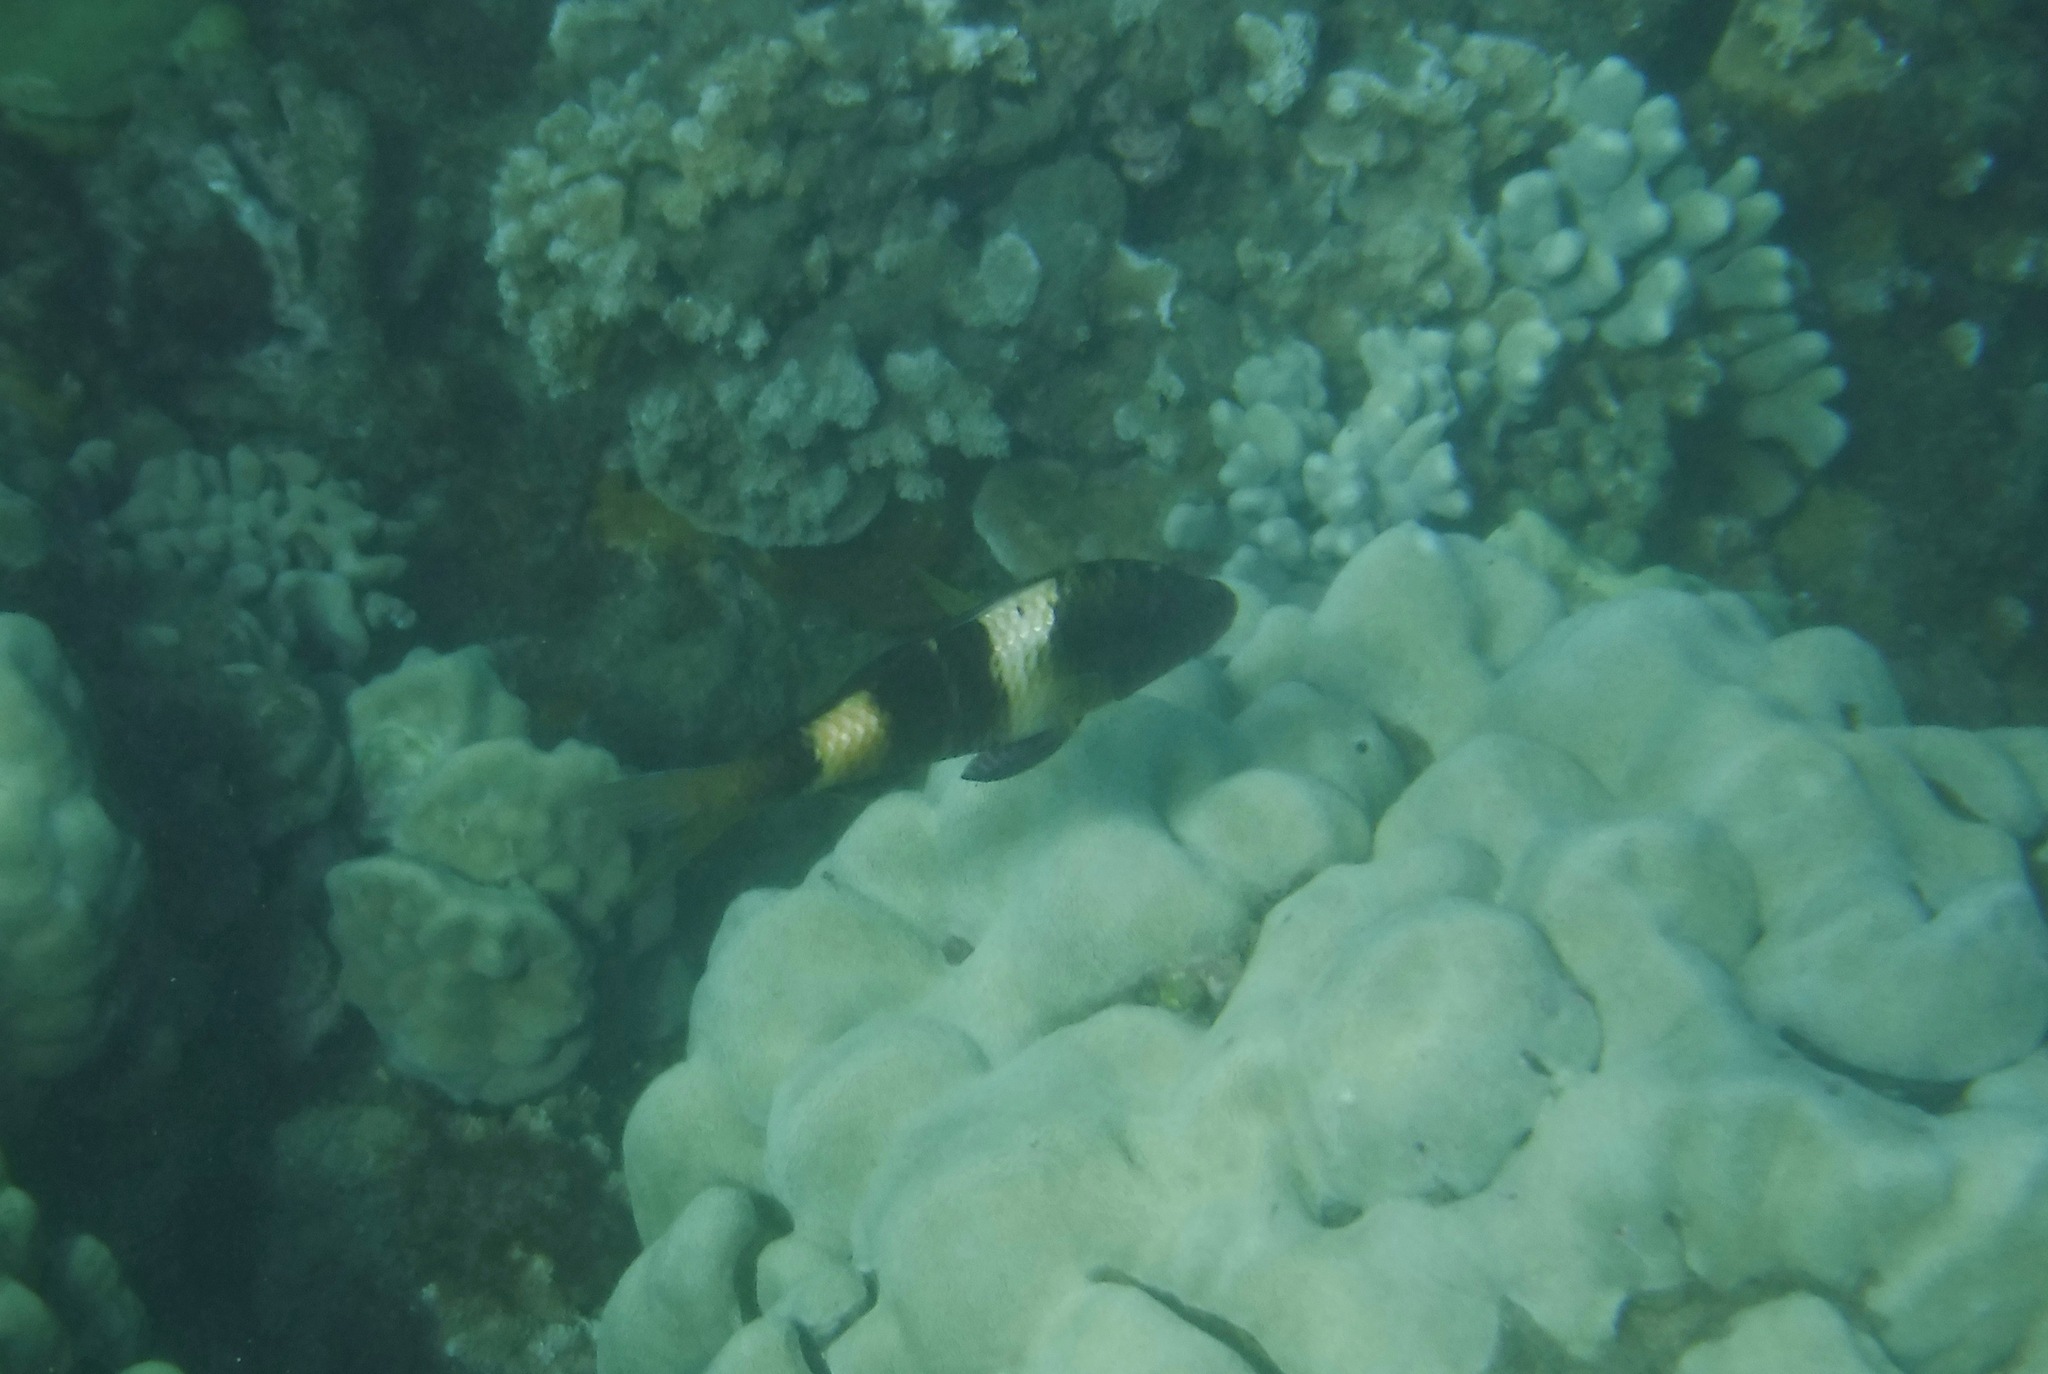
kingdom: Animalia
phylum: Chordata
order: Perciformes
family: Mullidae
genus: Parupeneus
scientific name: Parupeneus multifasciatus
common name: Manybar goatfish
